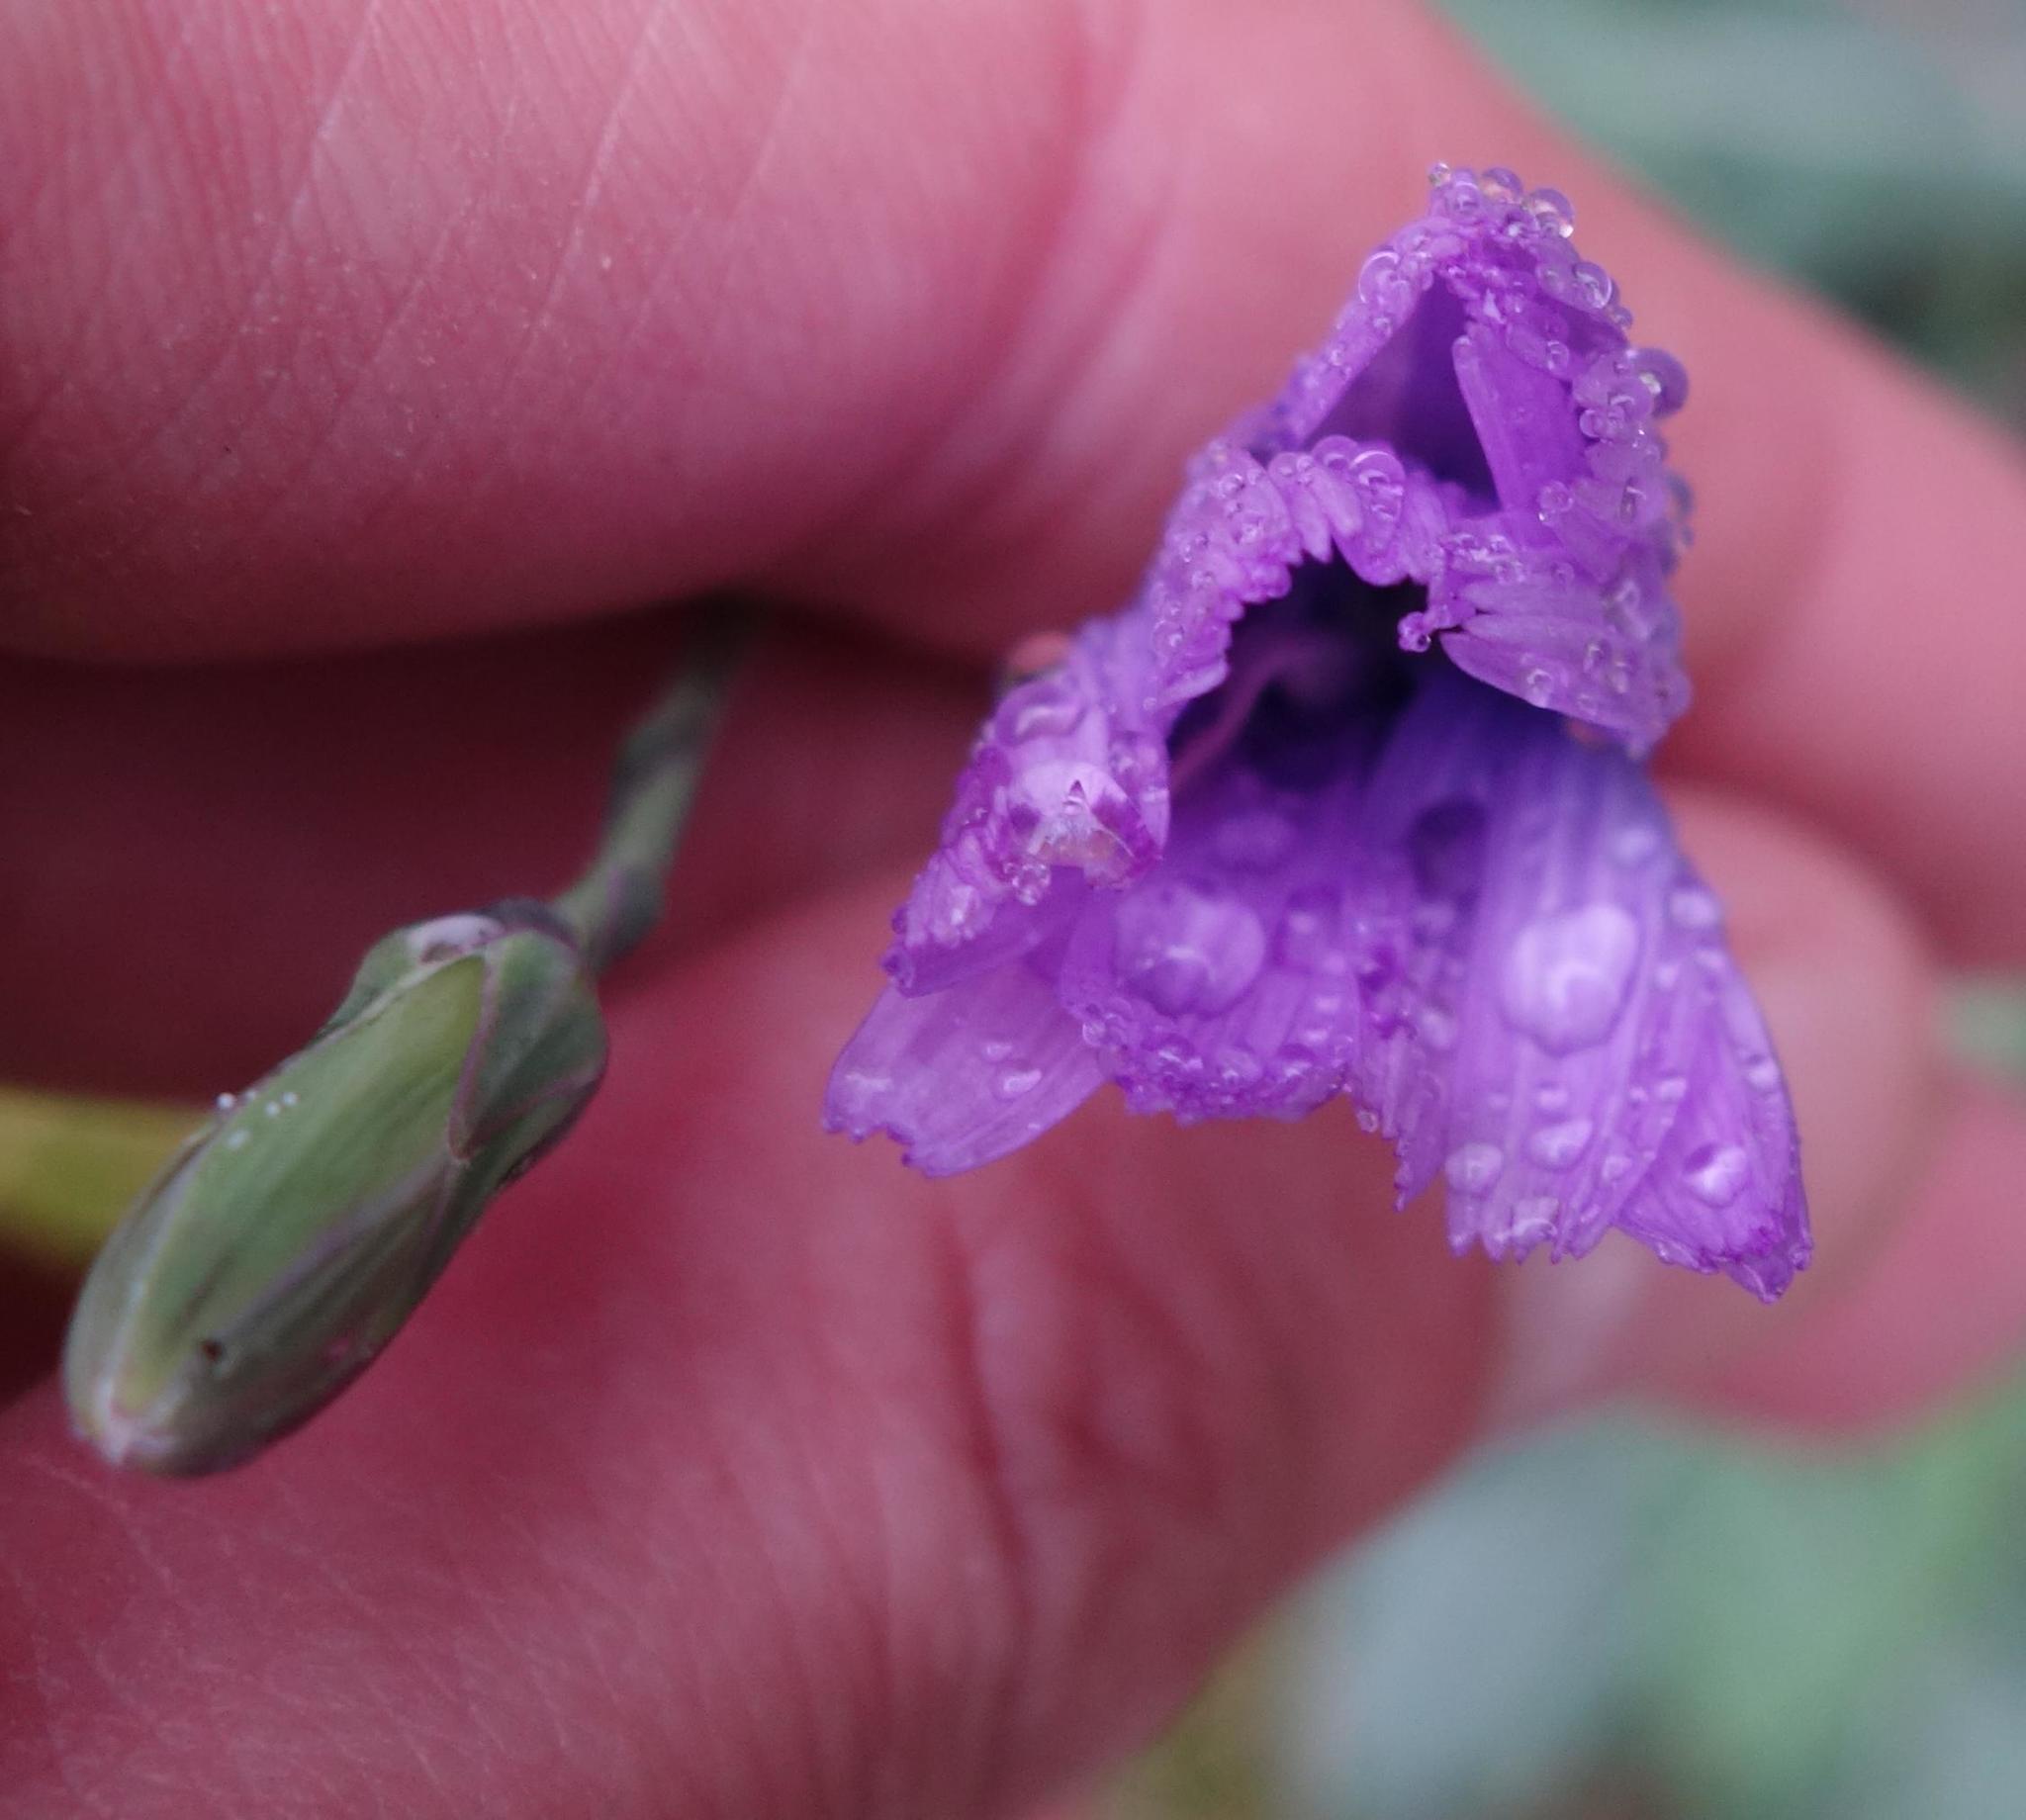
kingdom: Plantae
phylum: Tracheophyta
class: Magnoliopsida
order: Asterales
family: Asteraceae
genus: Lactuca
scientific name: Lactuca perennis
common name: Mountain lettuce
